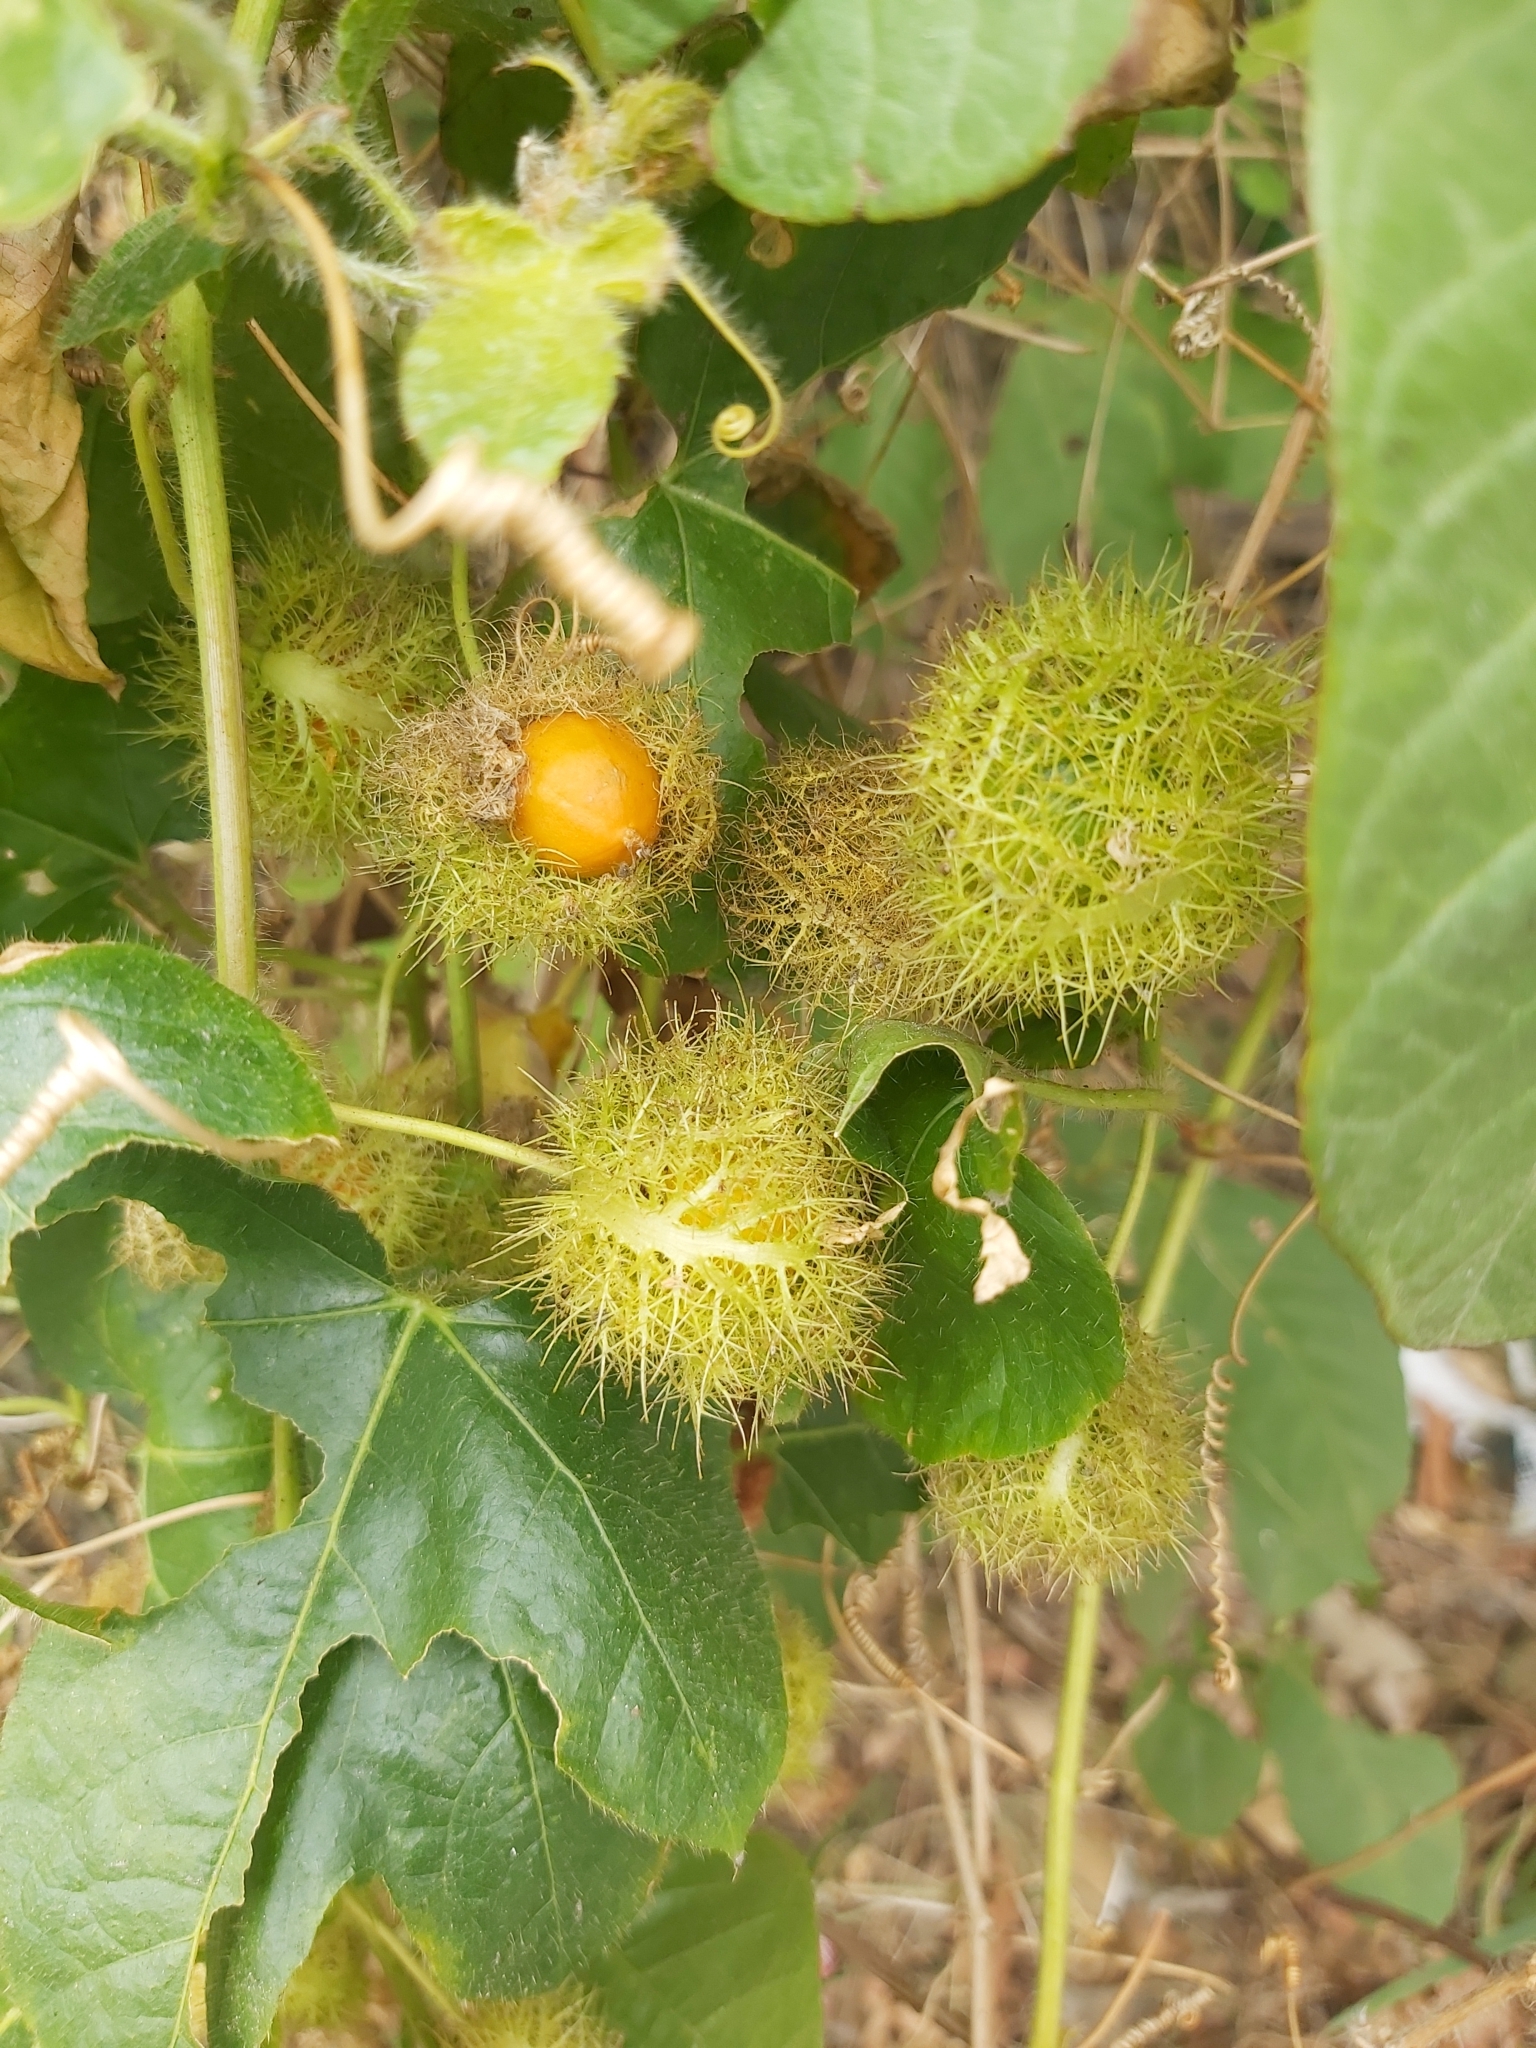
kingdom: Plantae
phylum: Tracheophyta
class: Magnoliopsida
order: Malpighiales
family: Passifloraceae
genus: Passiflora
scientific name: Passiflora vesicaria
